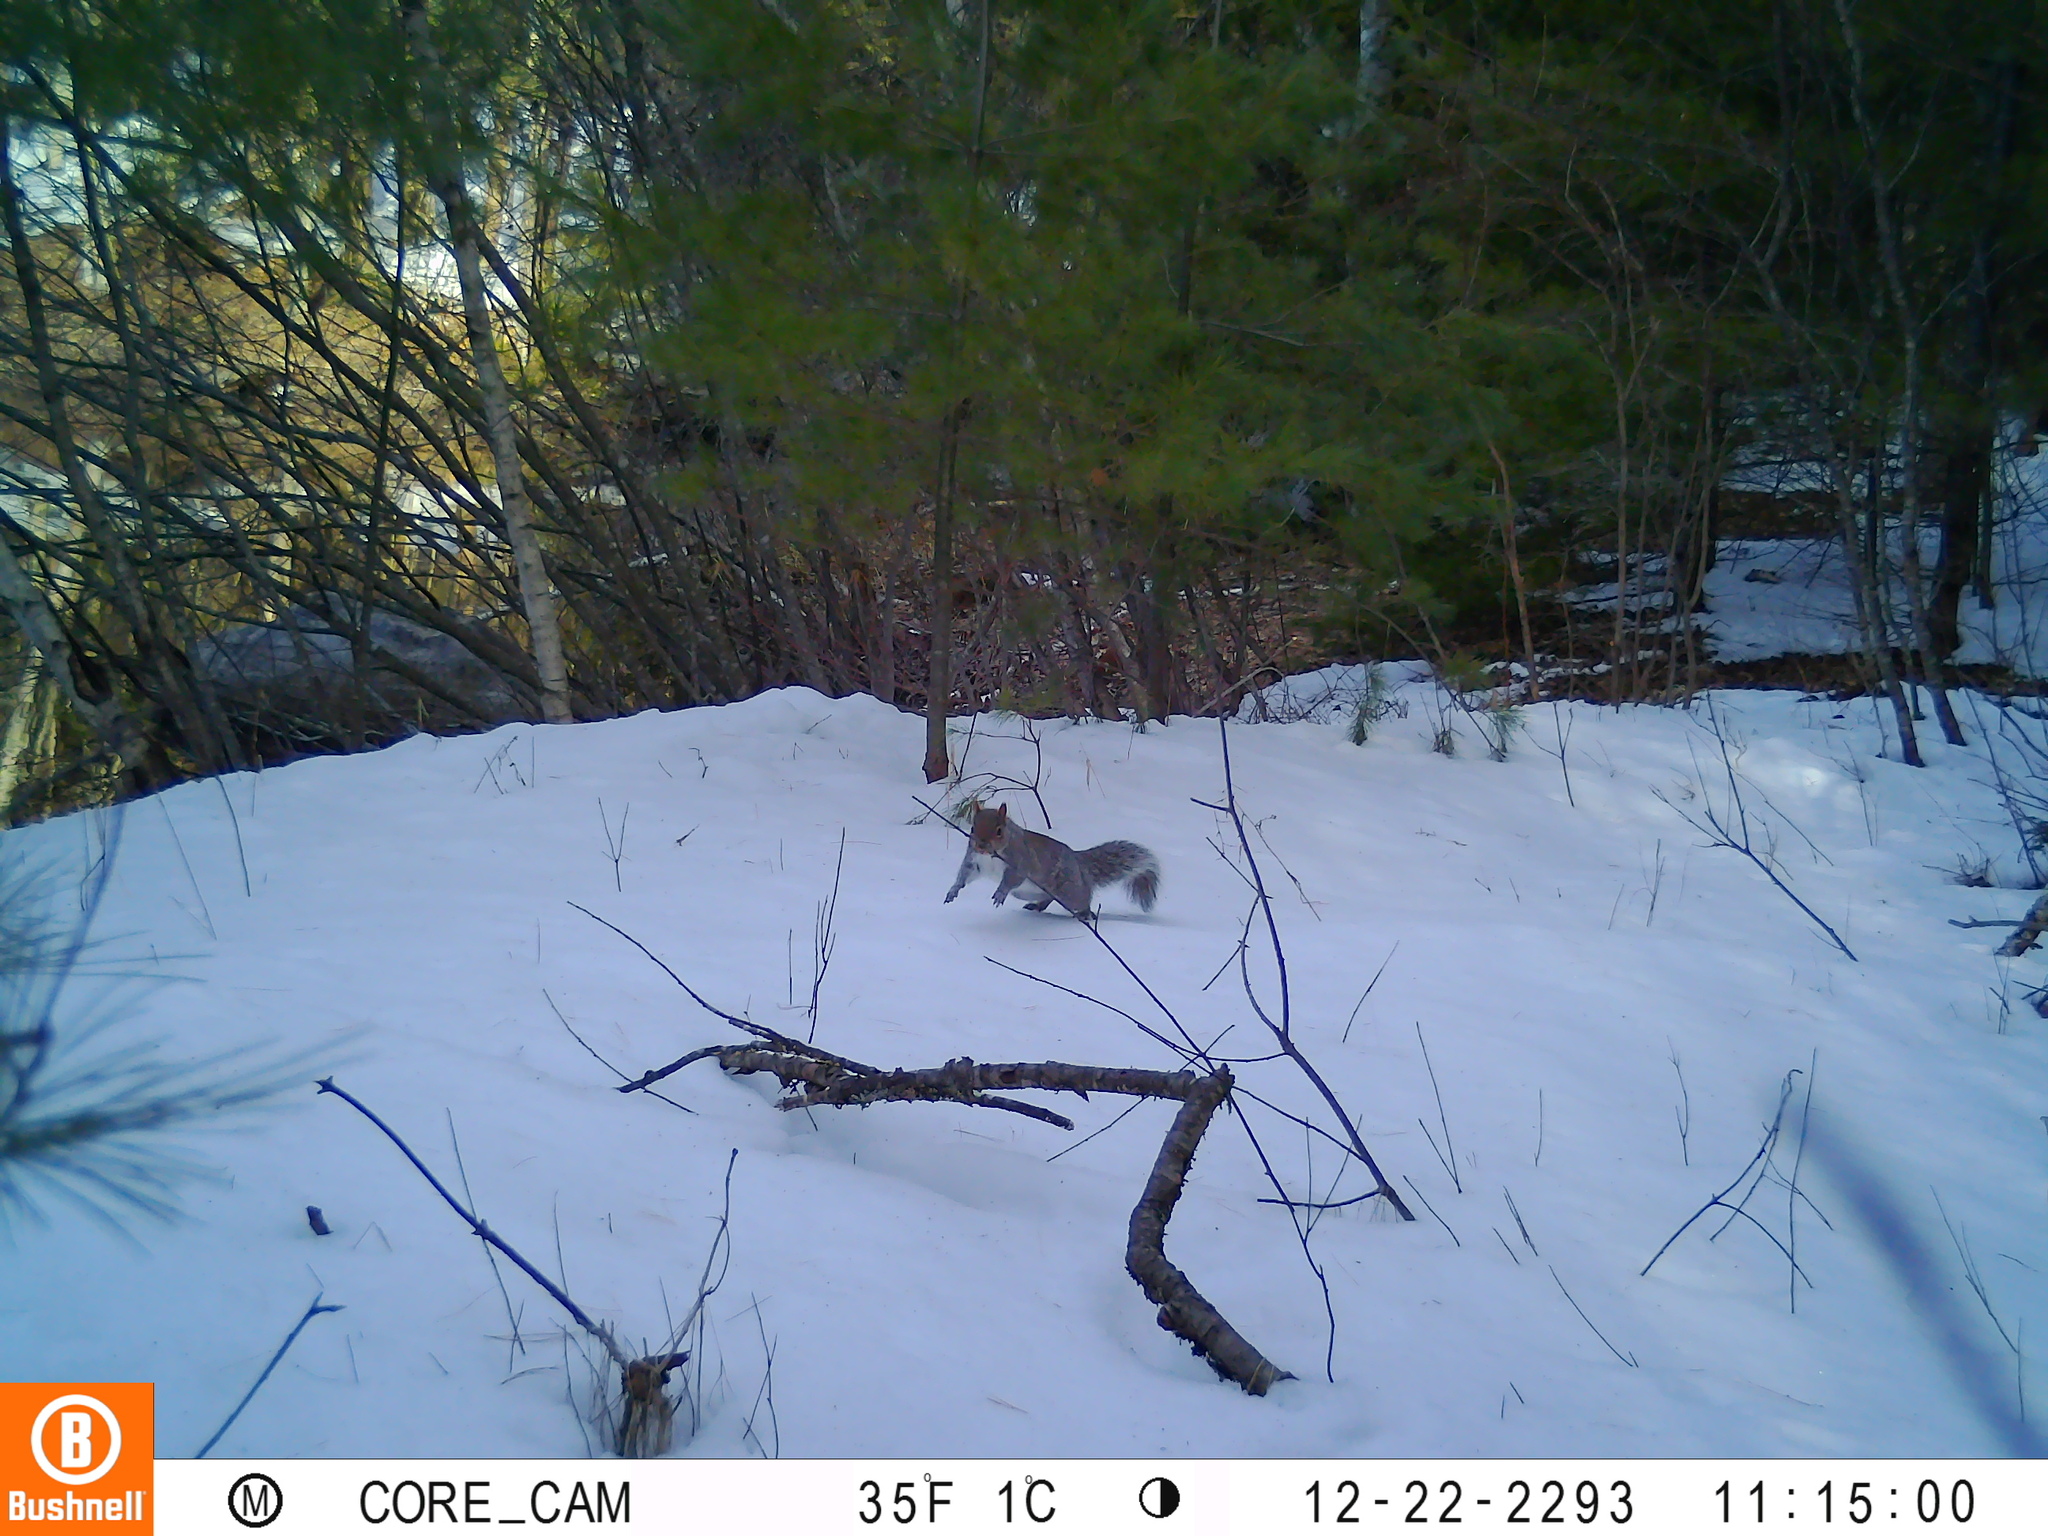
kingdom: Animalia
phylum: Chordata
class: Mammalia
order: Rodentia
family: Sciuridae
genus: Sciurus
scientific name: Sciurus carolinensis
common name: Eastern gray squirrel
